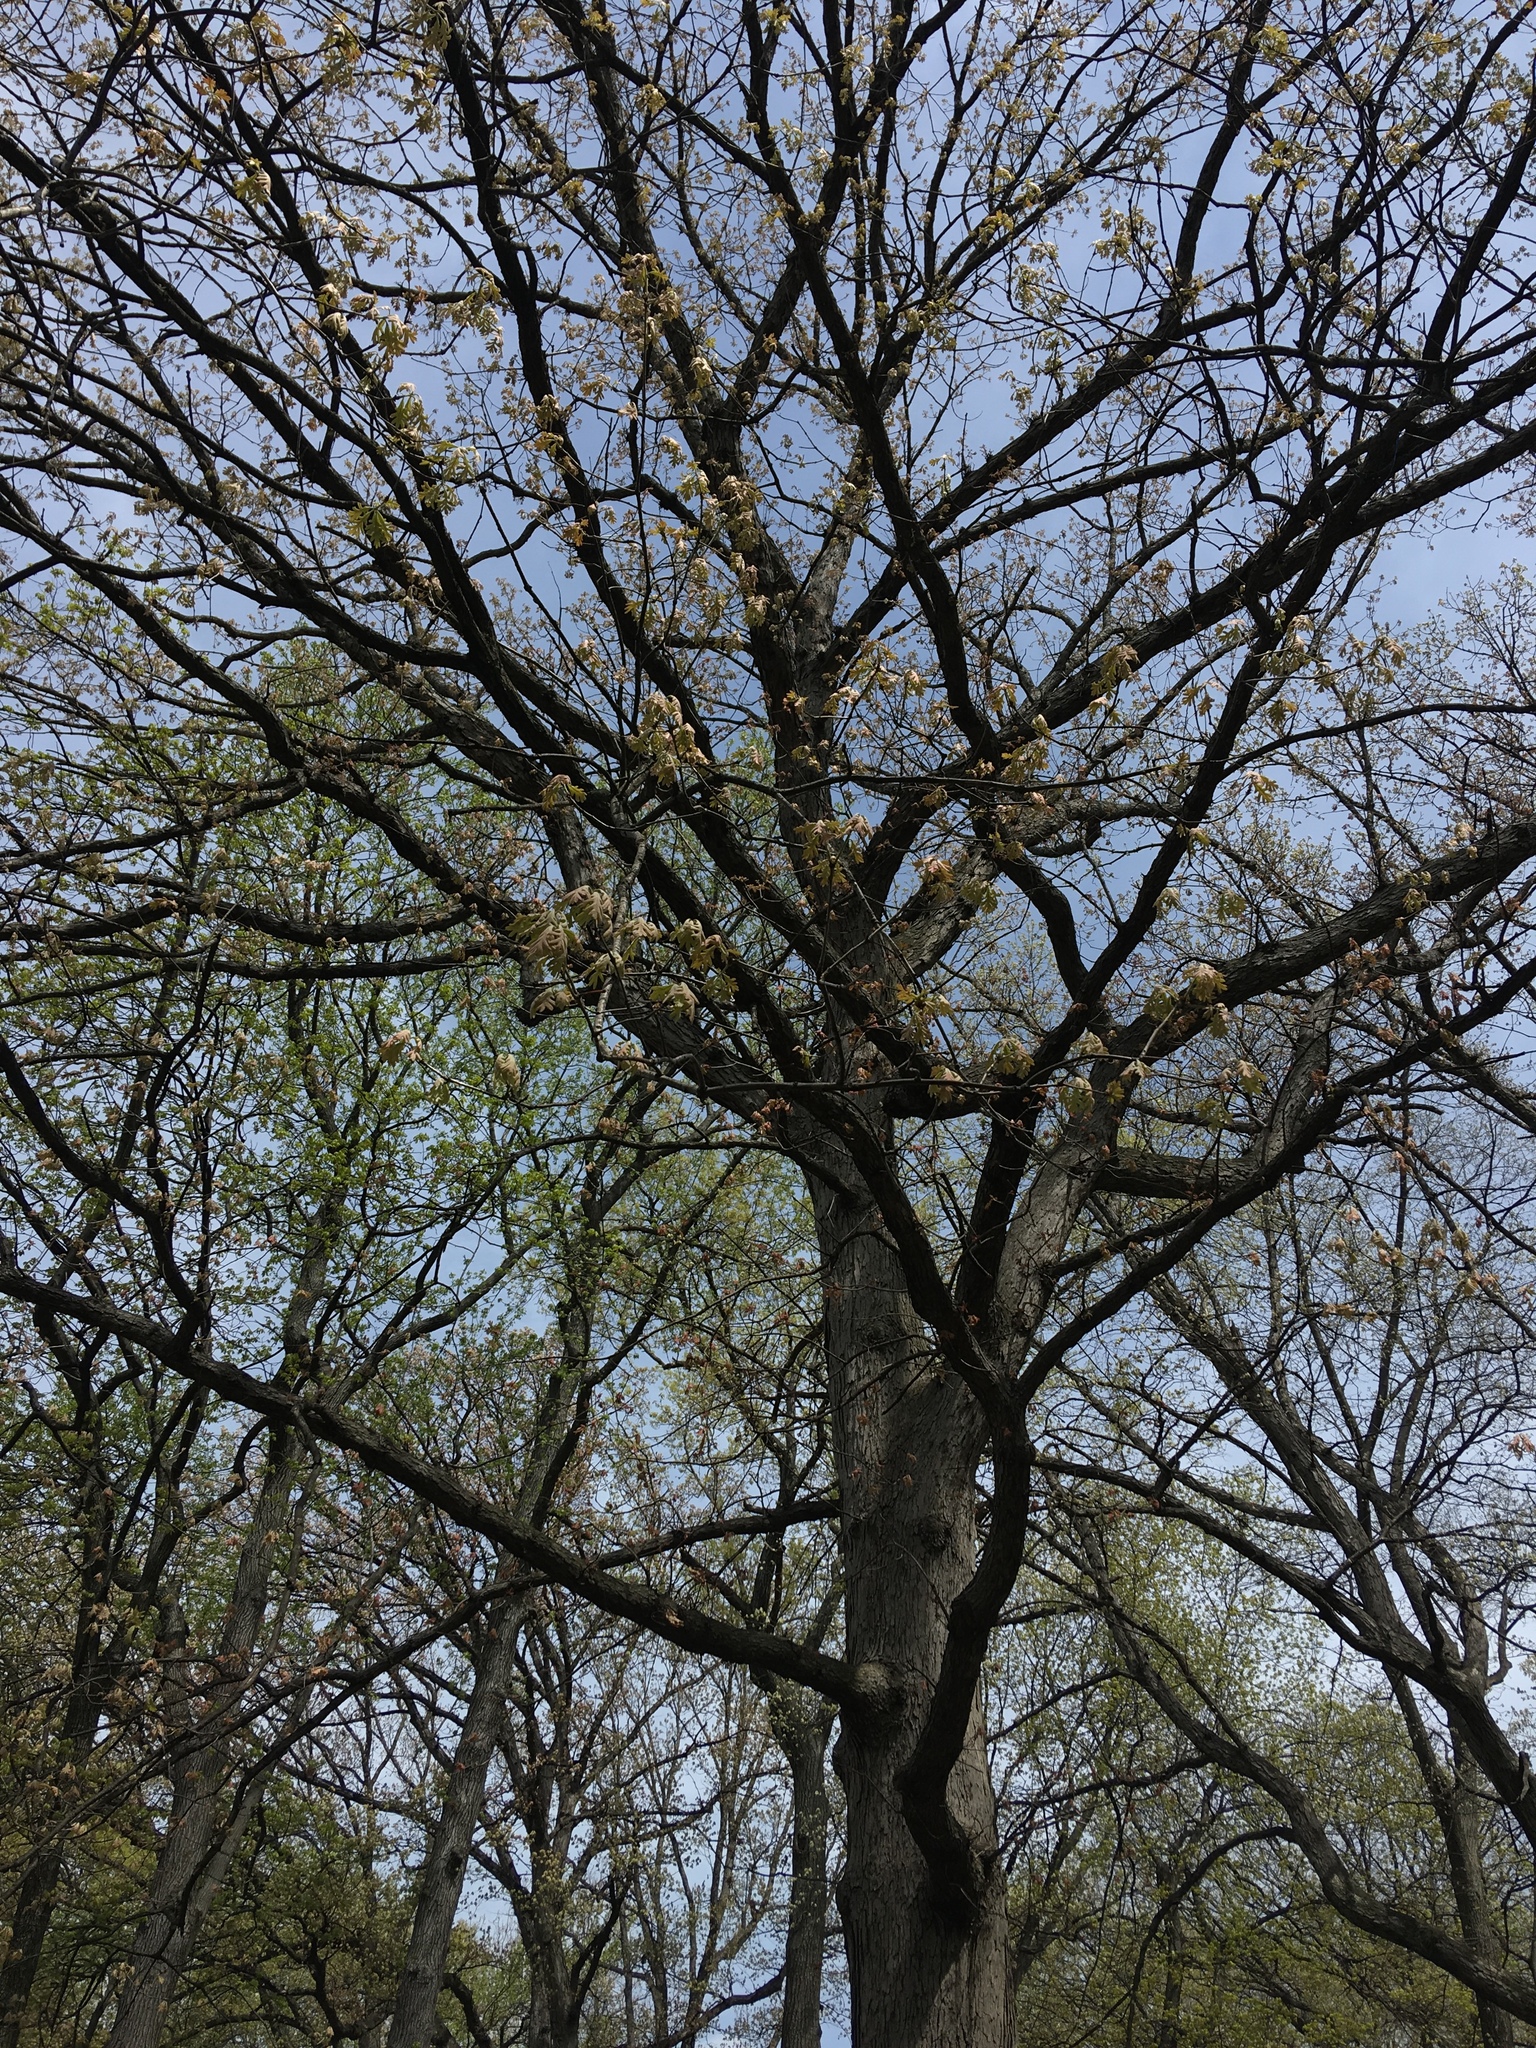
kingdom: Plantae
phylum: Tracheophyta
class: Magnoliopsida
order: Fagales
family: Fagaceae
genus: Quercus
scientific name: Quercus alba
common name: White oak
